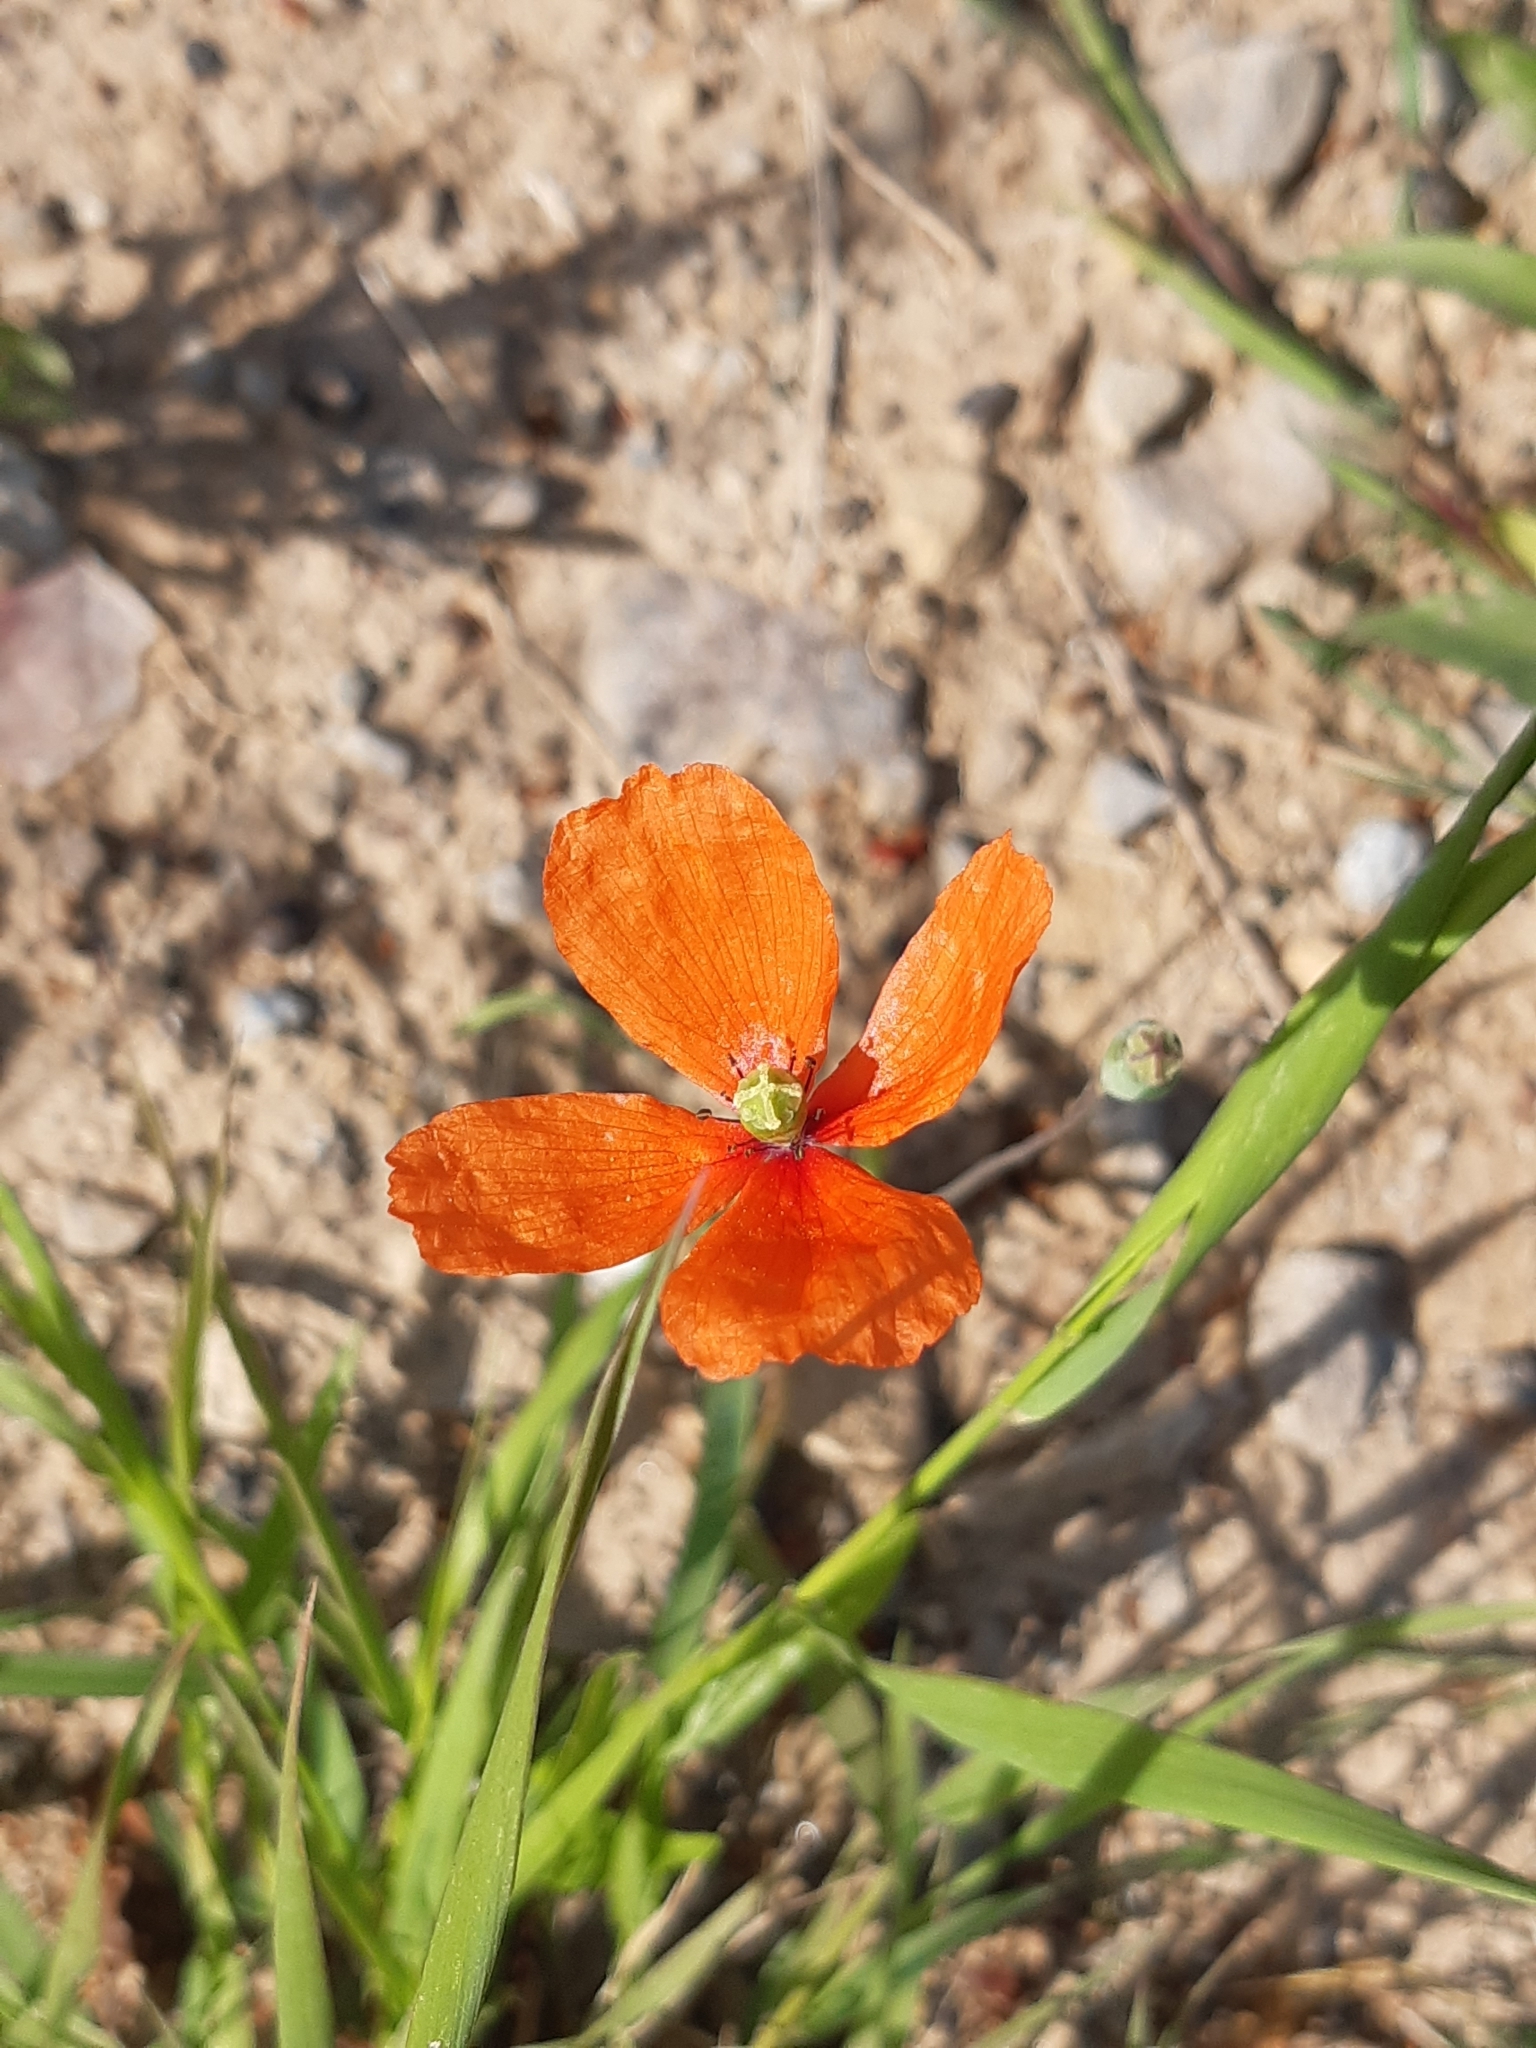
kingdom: Plantae
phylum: Tracheophyta
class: Magnoliopsida
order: Ranunculales
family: Papaveraceae
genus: Papaver
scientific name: Papaver dubium
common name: Long-headed poppy
